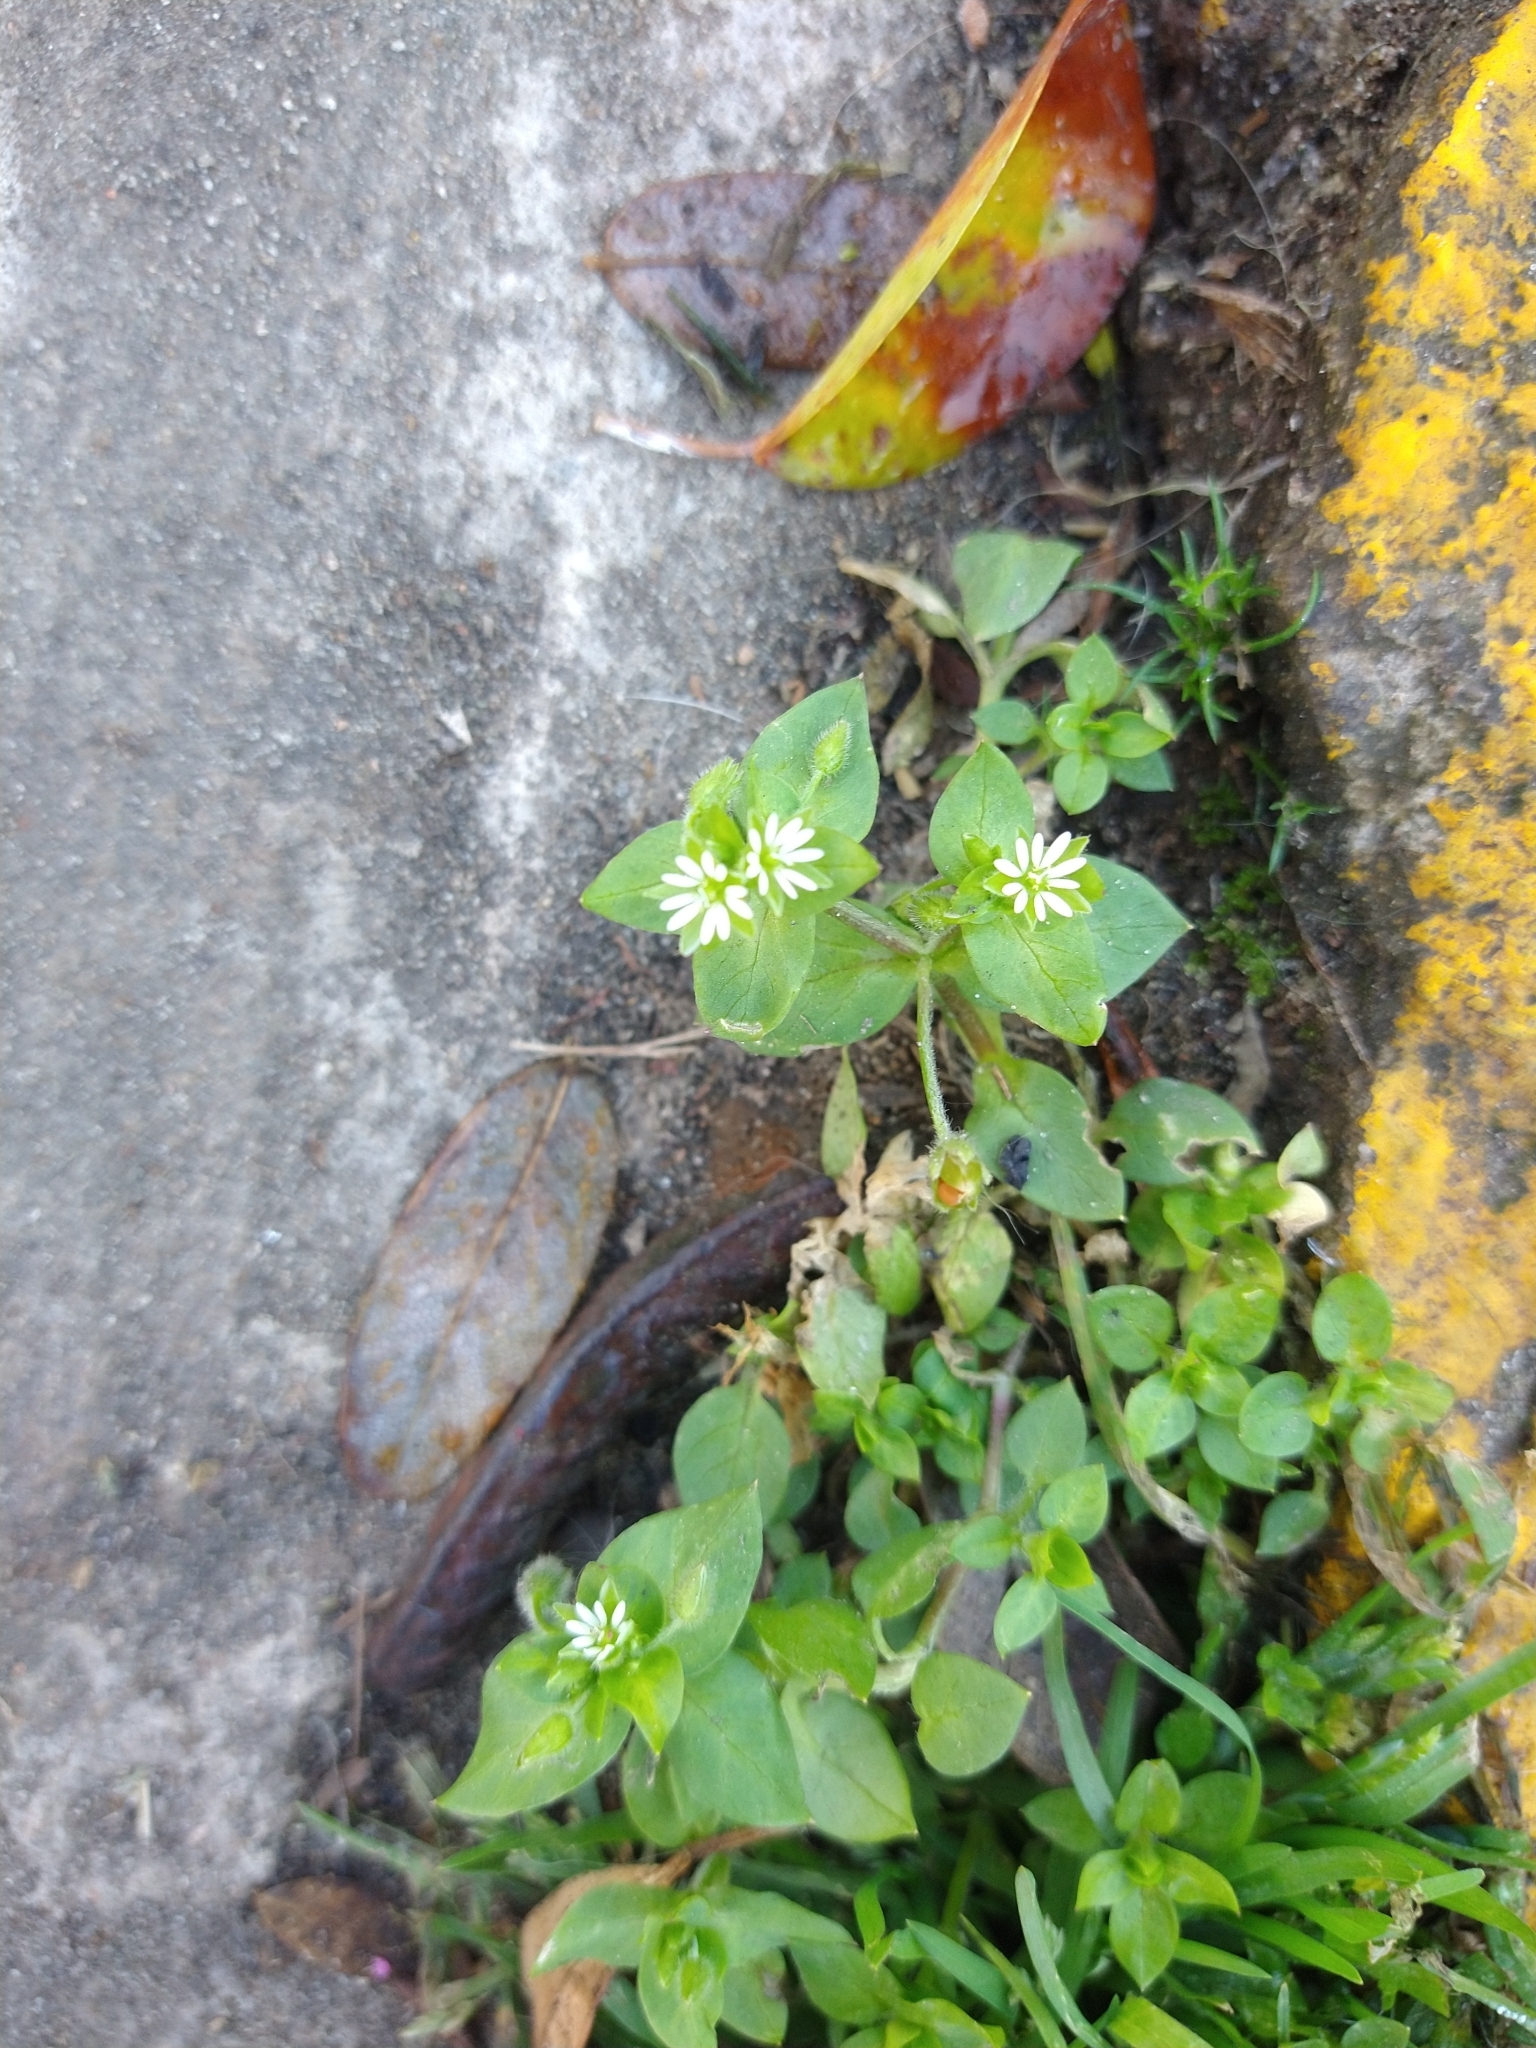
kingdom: Plantae
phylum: Tracheophyta
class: Magnoliopsida
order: Caryophyllales
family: Caryophyllaceae
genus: Stellaria
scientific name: Stellaria media
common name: Common chickweed
